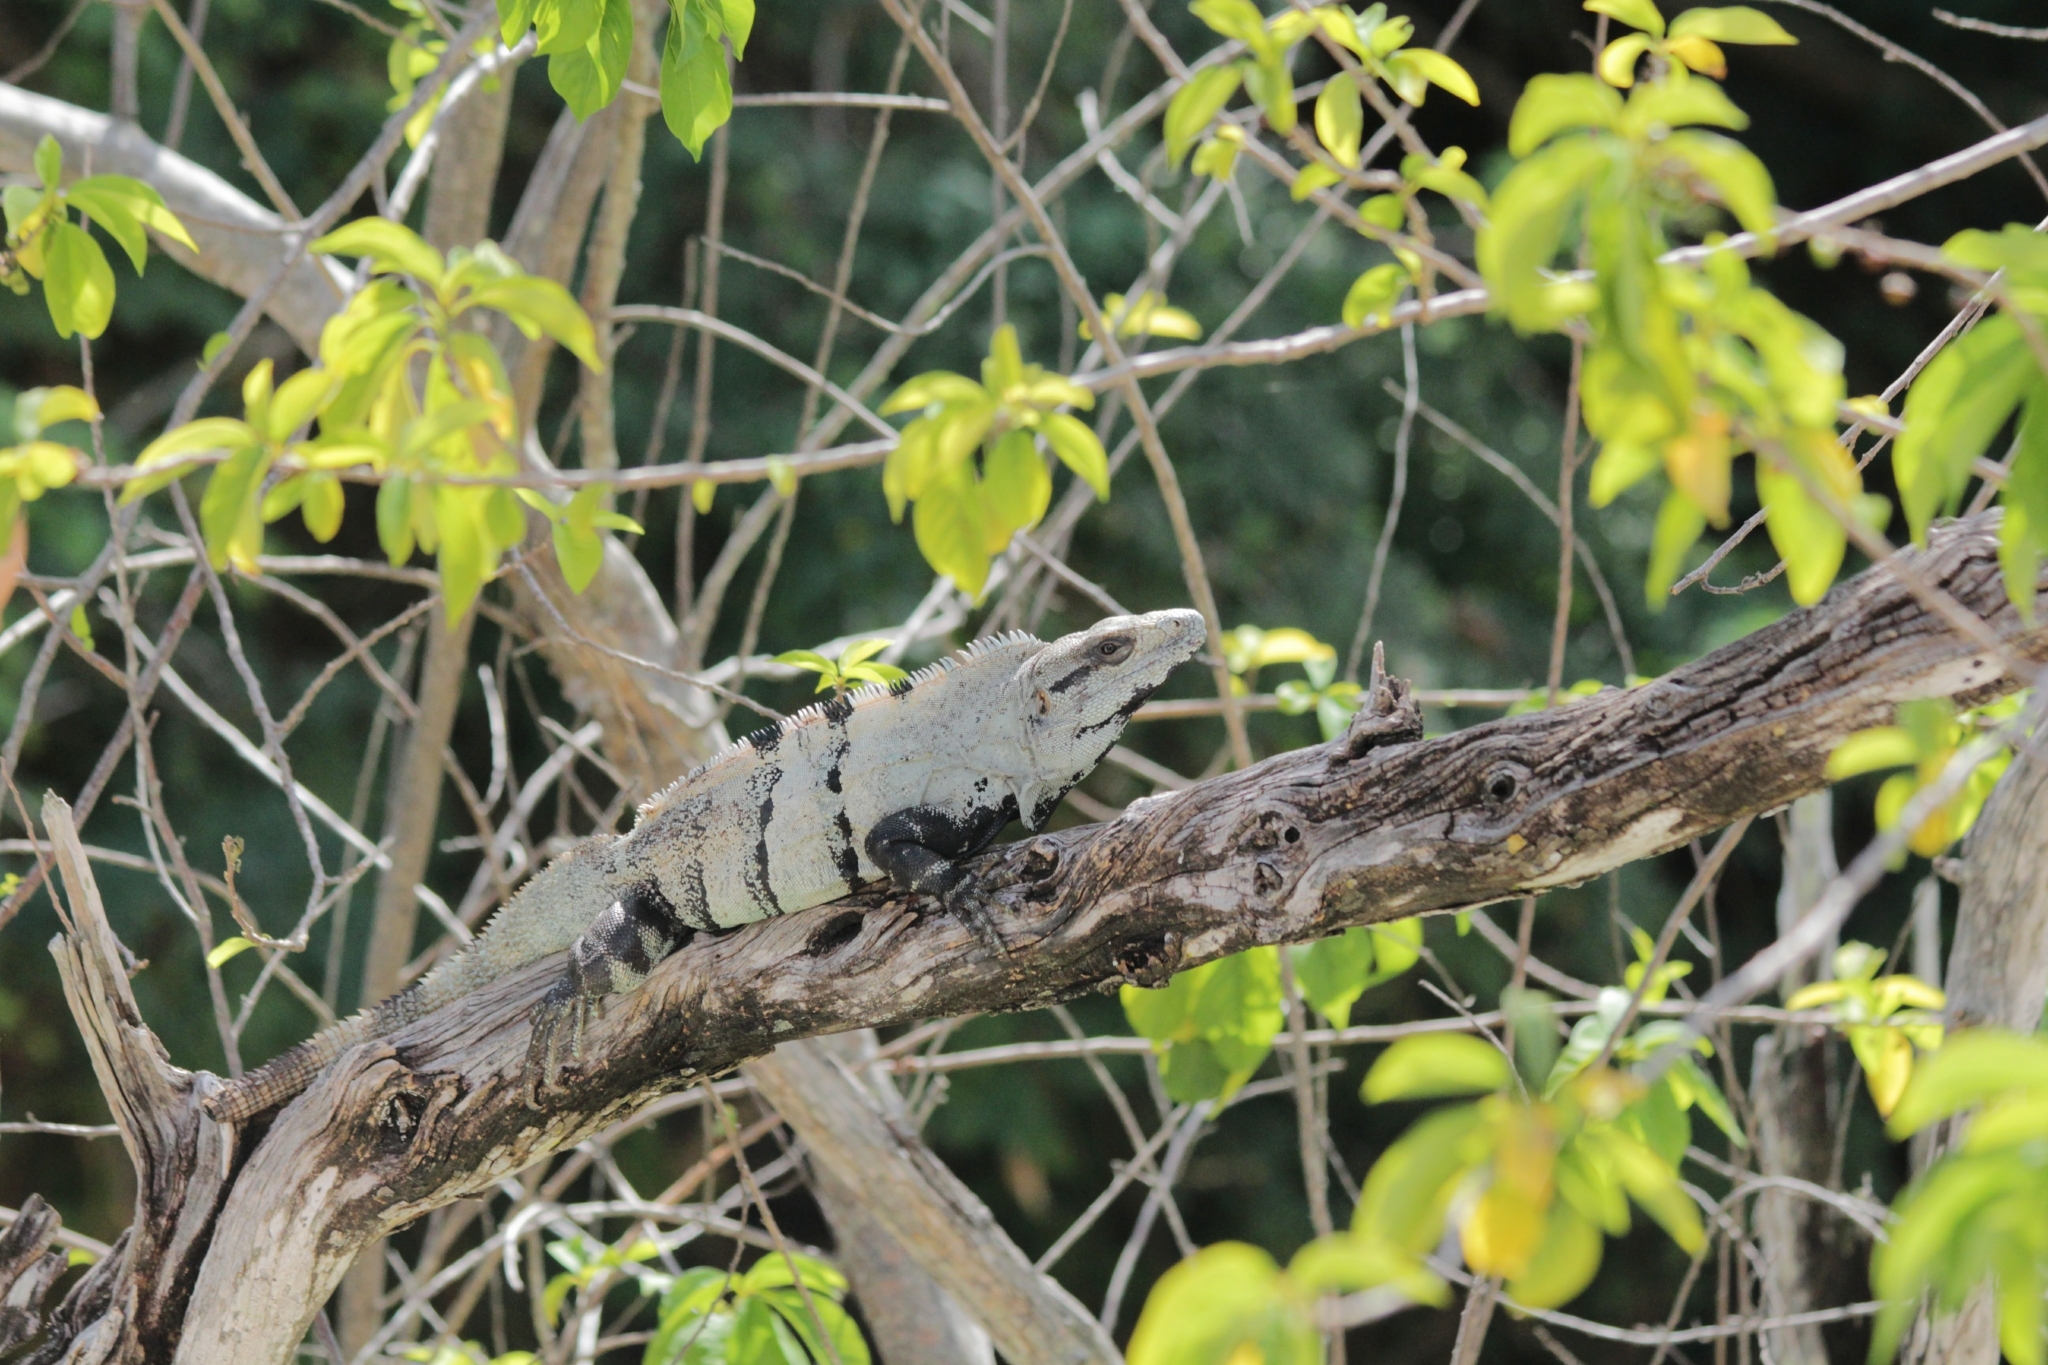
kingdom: Animalia
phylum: Chordata
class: Squamata
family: Iguanidae
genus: Ctenosaura
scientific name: Ctenosaura similis
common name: Black spiny-tailed iguana
